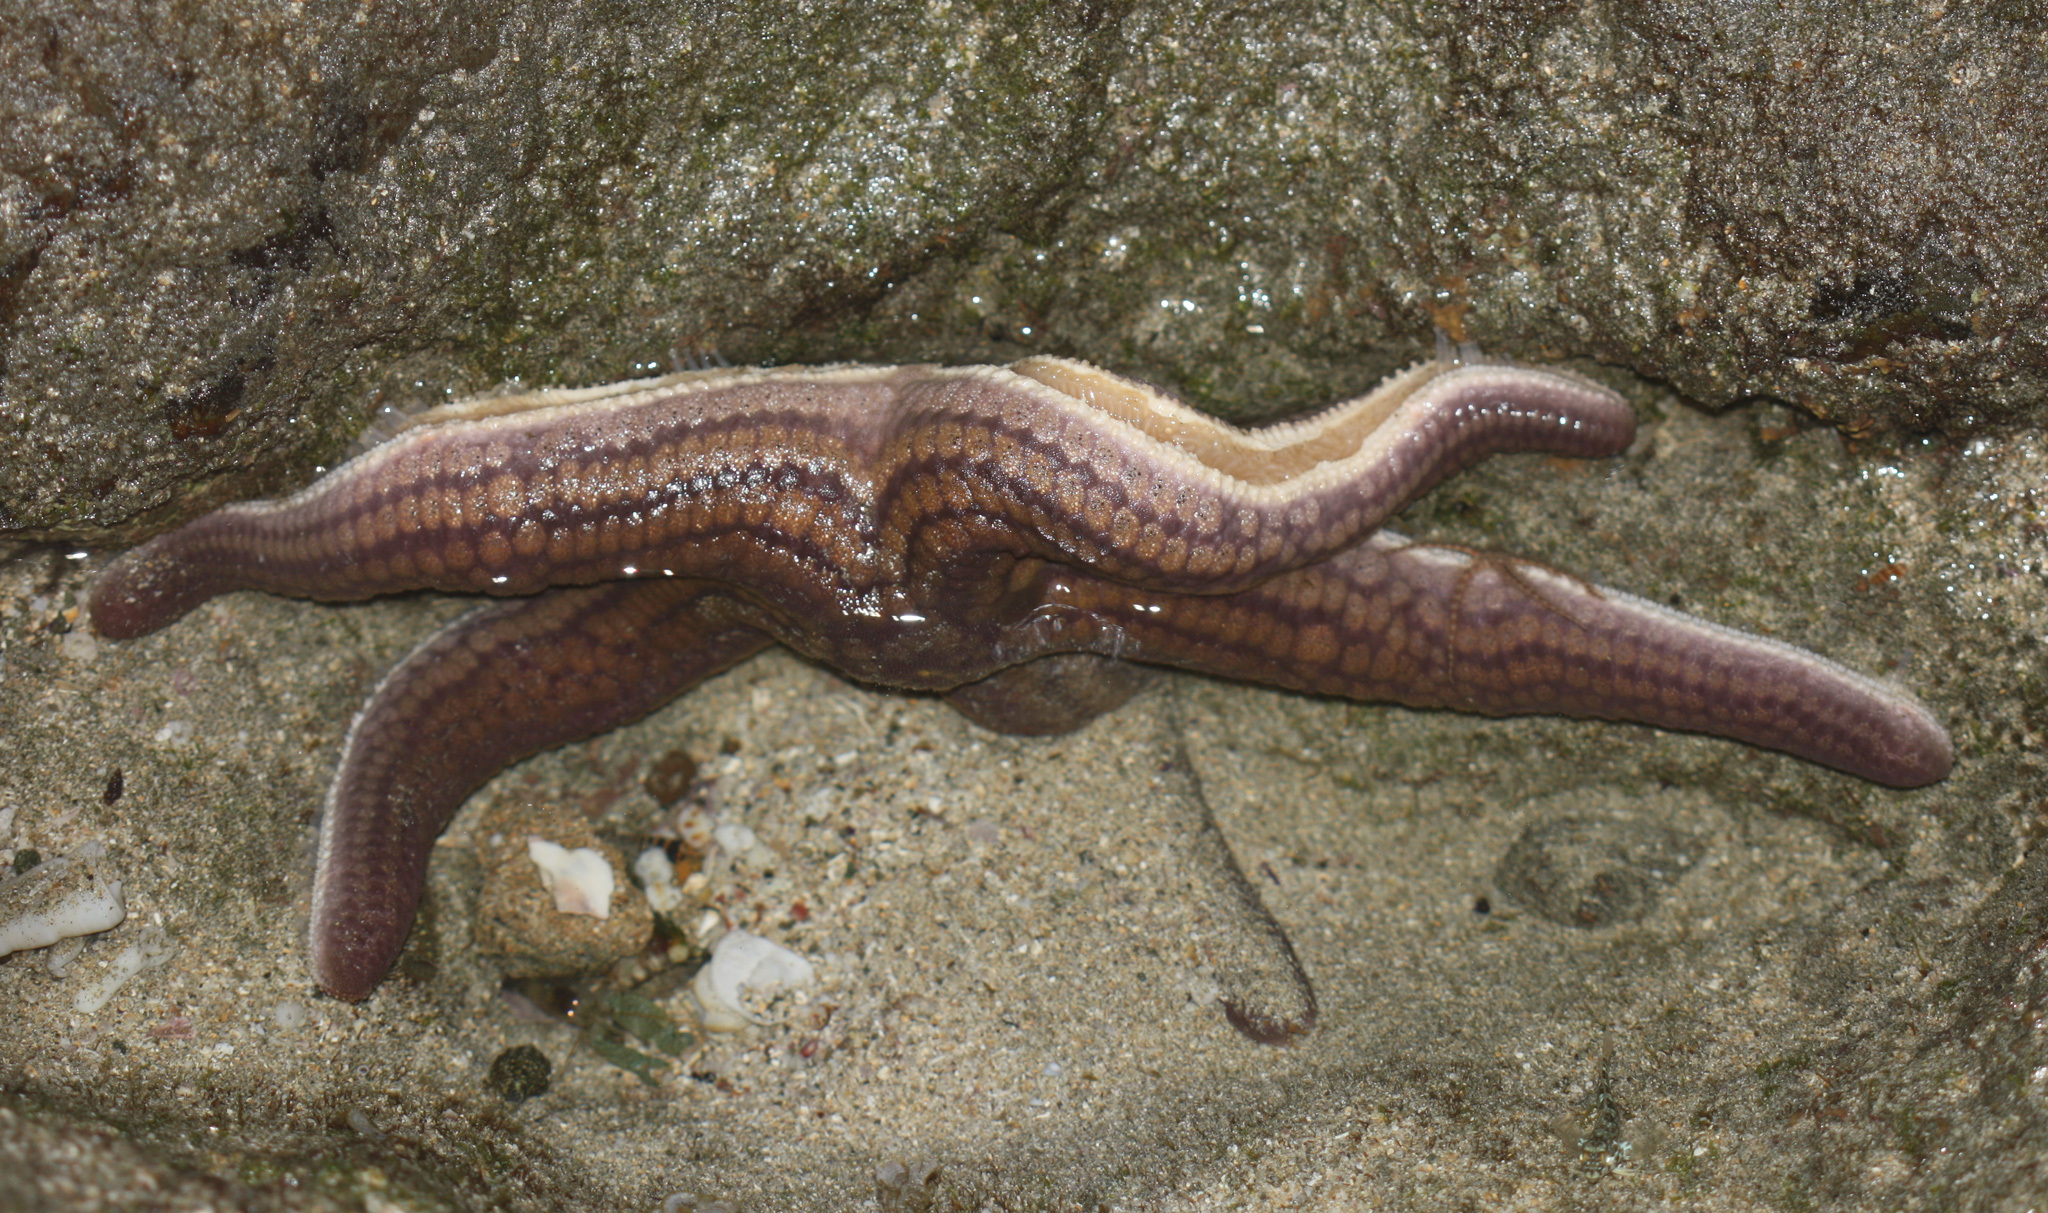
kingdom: Animalia
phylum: Echinodermata
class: Asteroidea
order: Valvatida
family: Ophidiasteridae
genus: Pharia
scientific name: Pharia pyramidata
